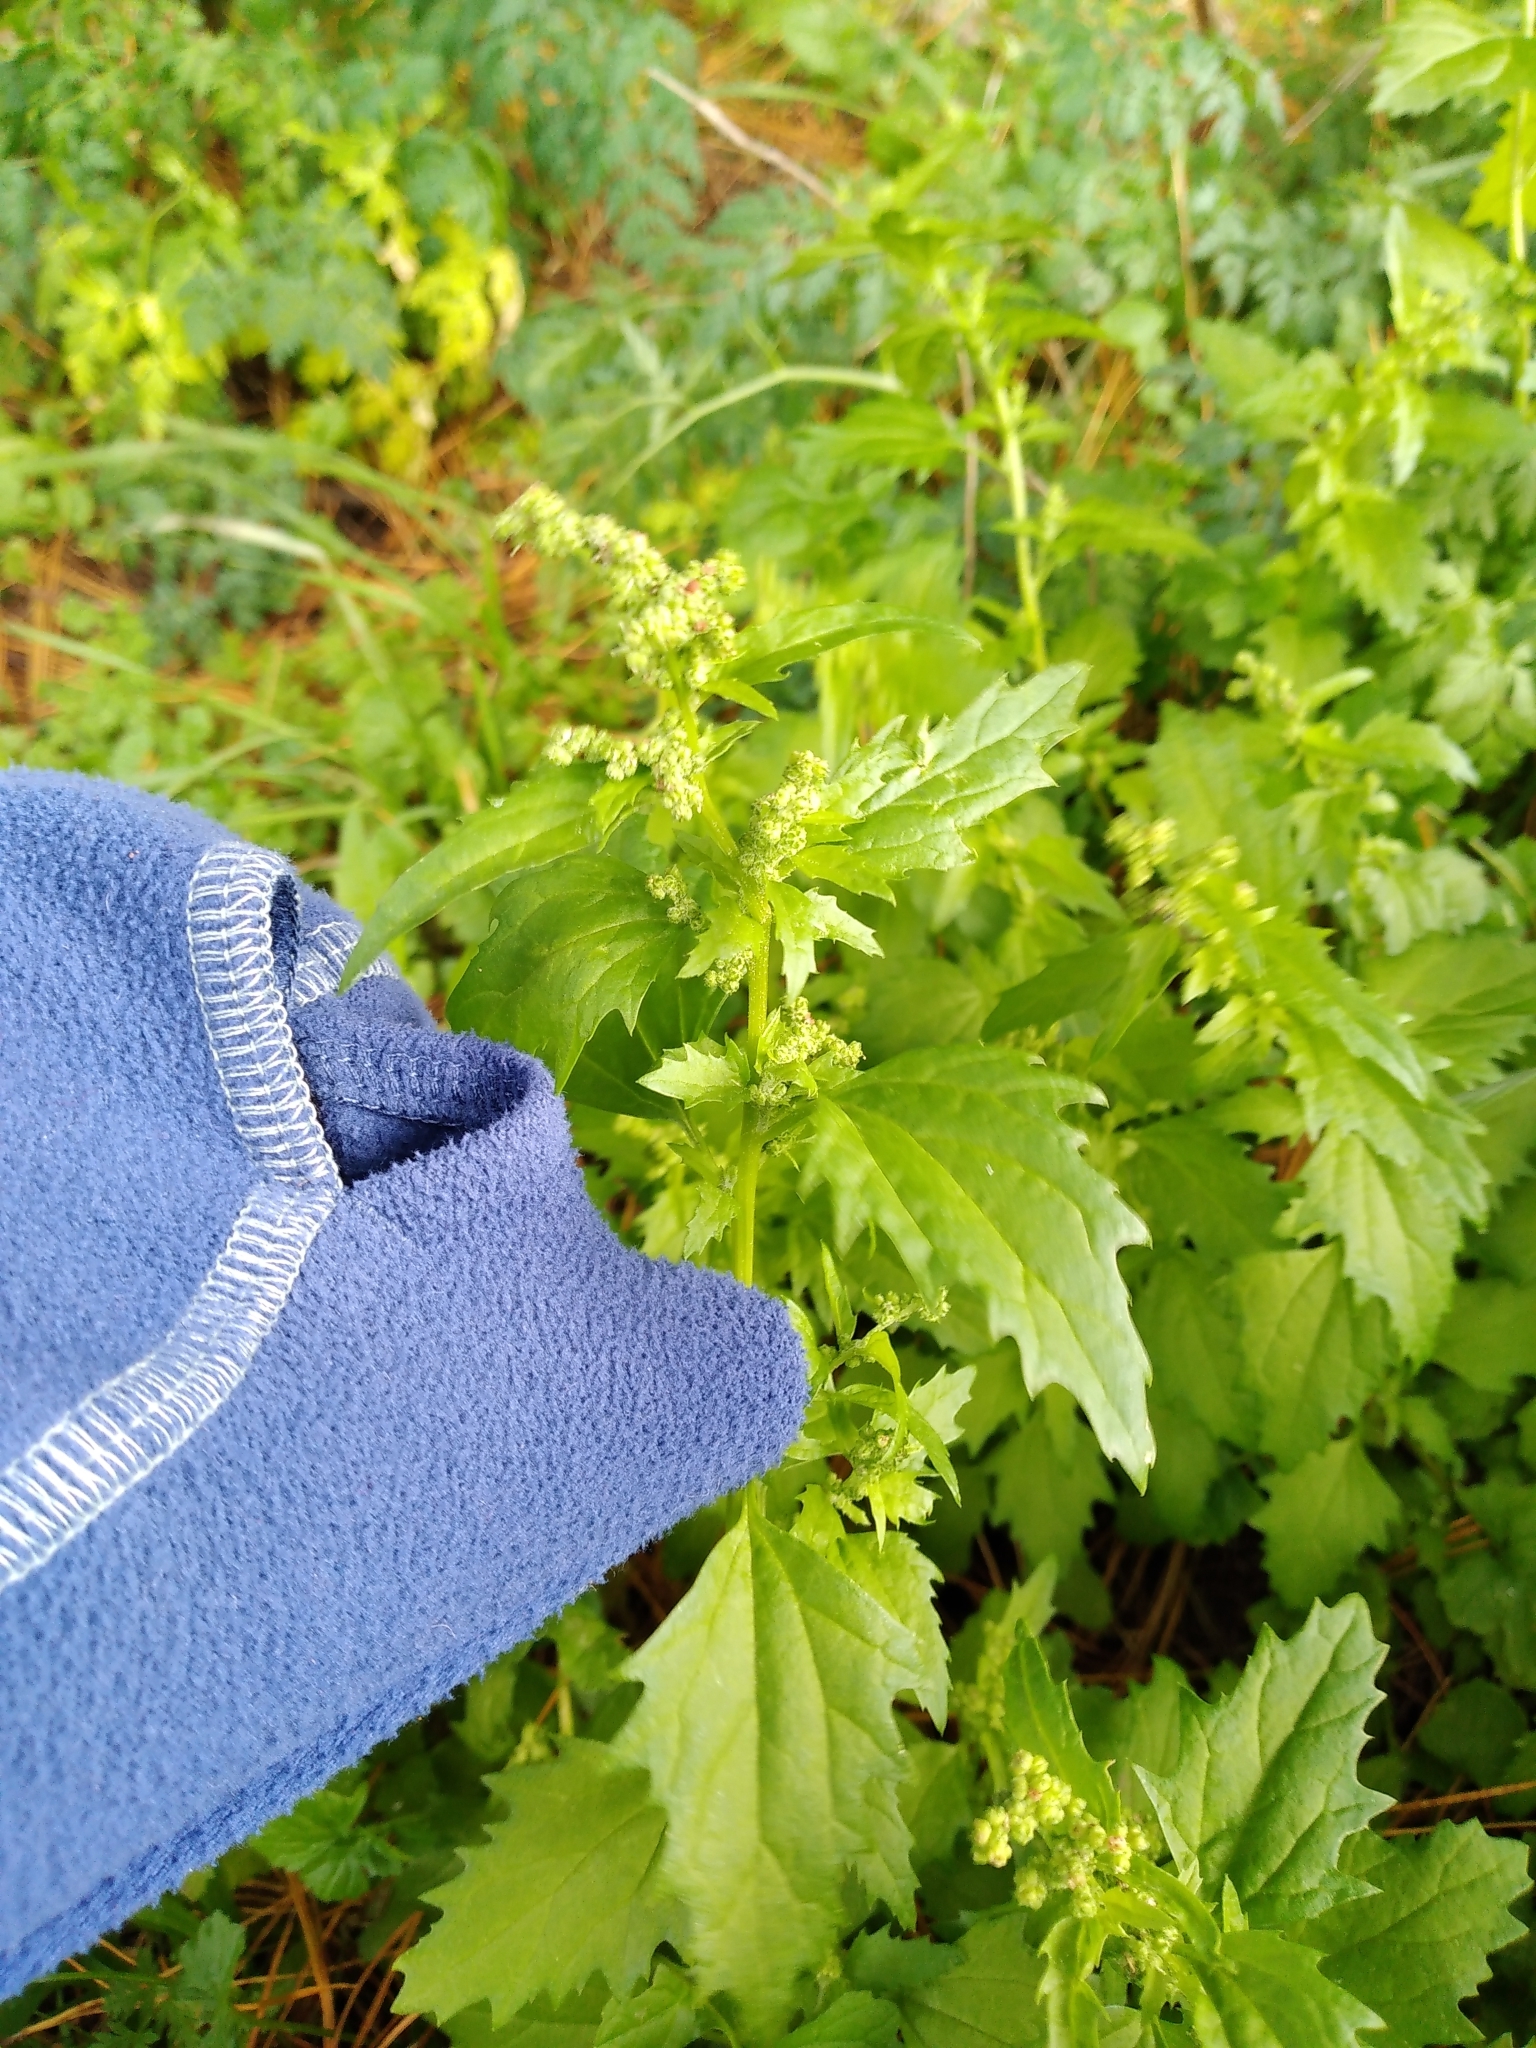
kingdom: Plantae
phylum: Tracheophyta
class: Magnoliopsida
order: Caryophyllales
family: Amaranthaceae
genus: Chenopodiastrum
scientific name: Chenopodiastrum murale
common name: Sowbane
